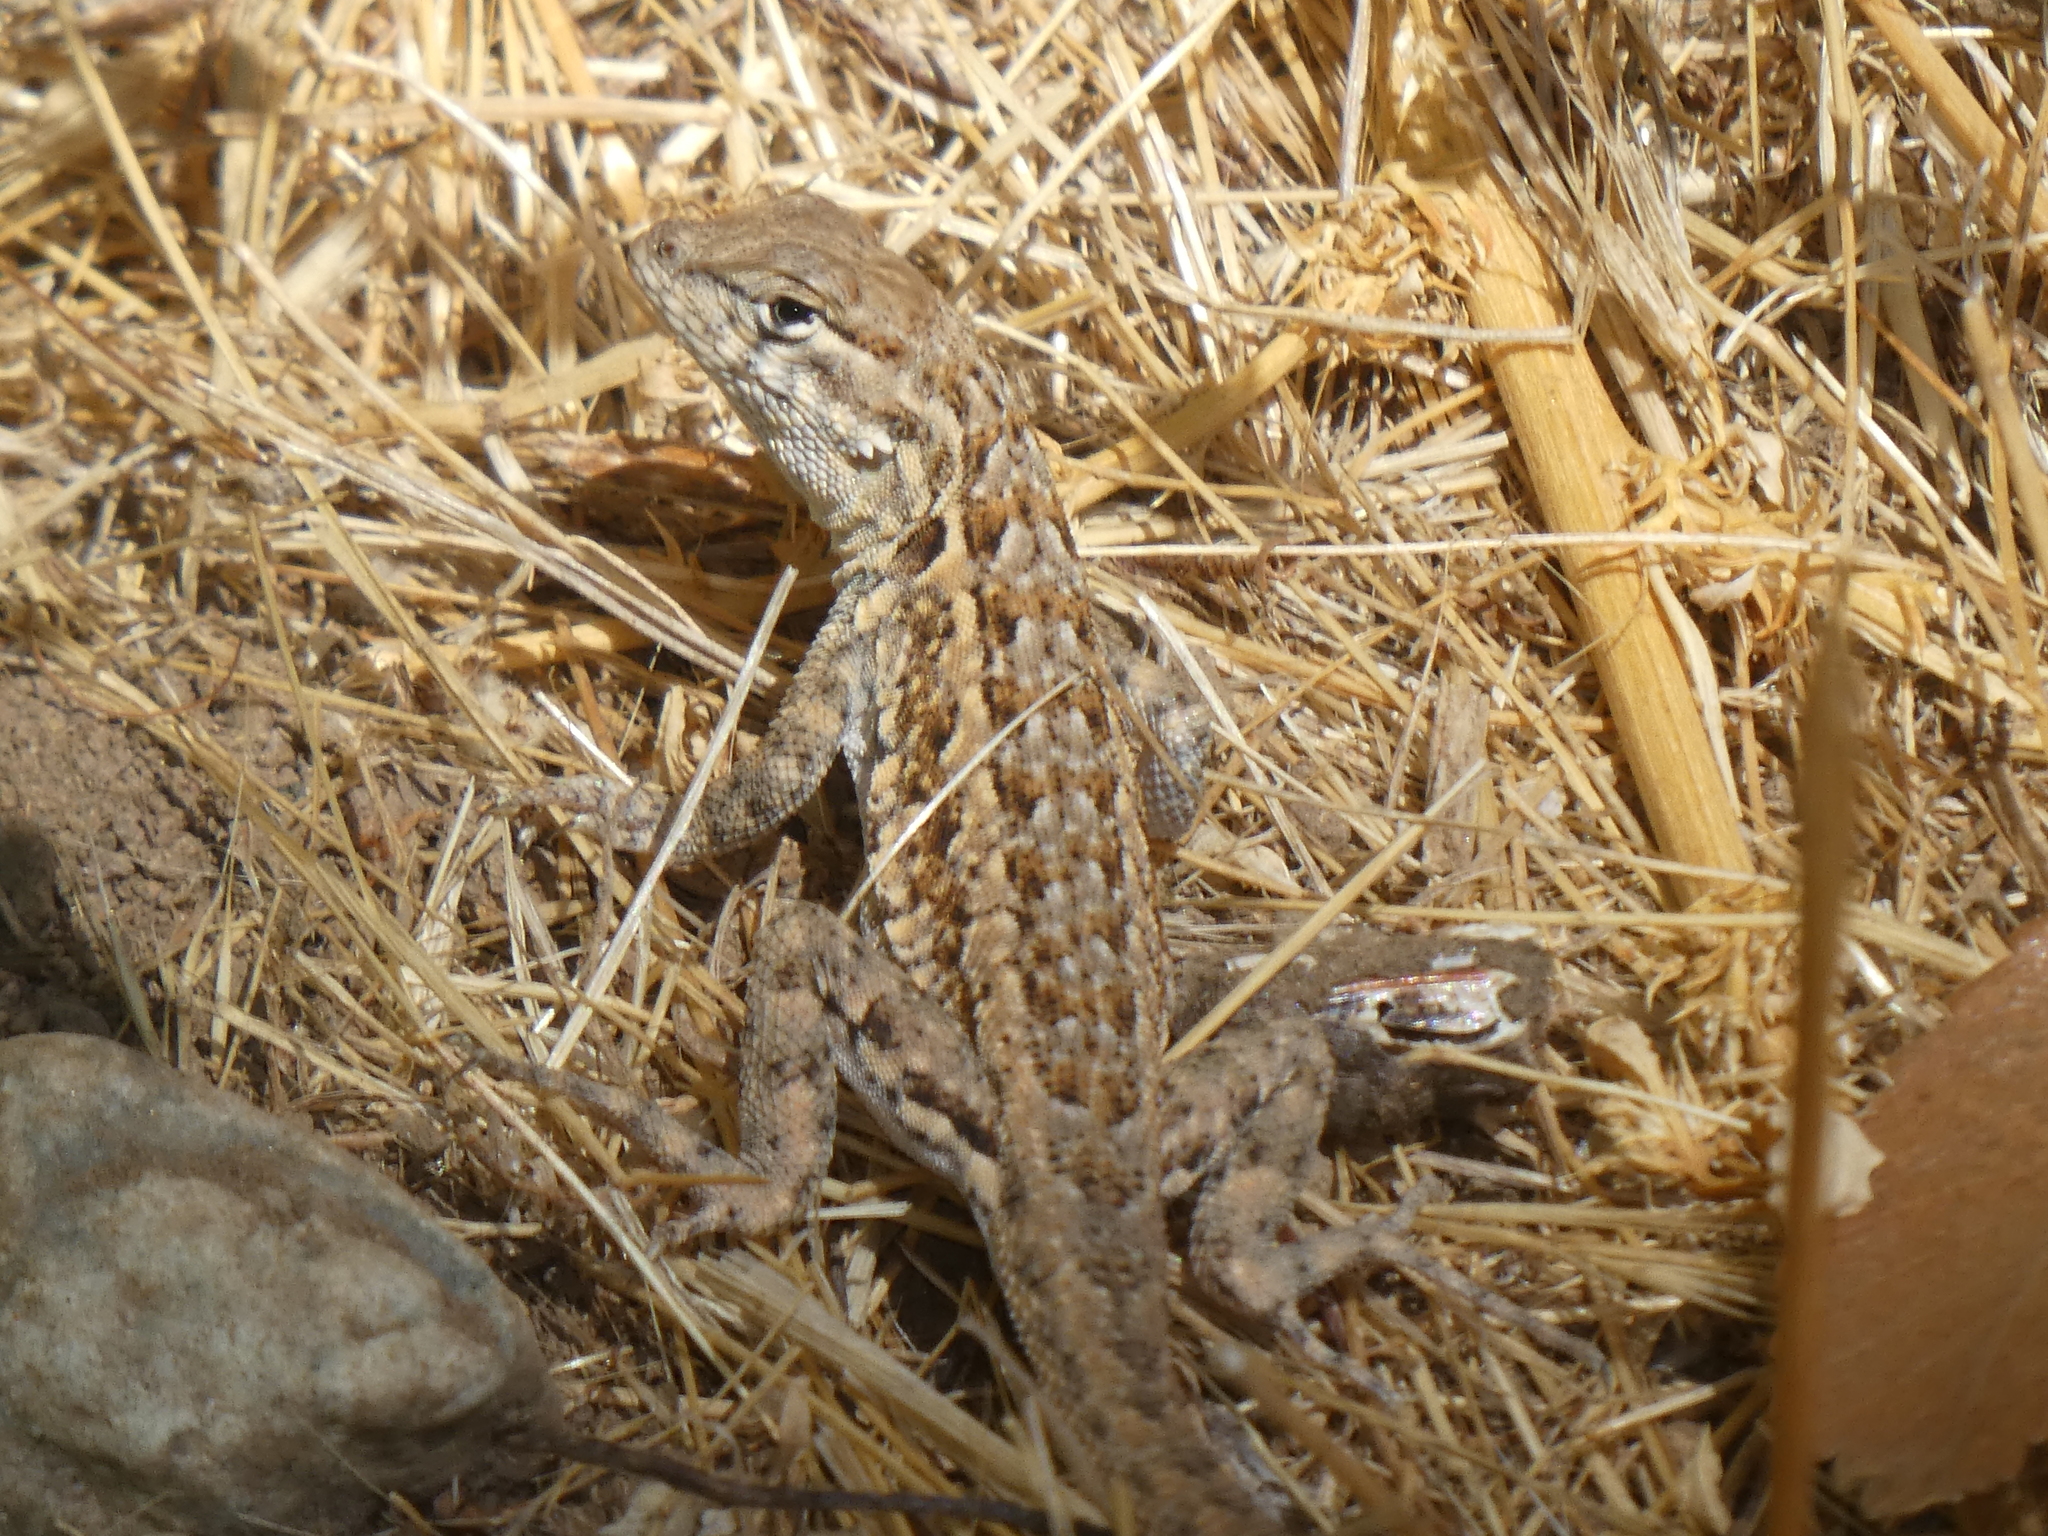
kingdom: Animalia
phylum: Chordata
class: Squamata
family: Phrynosomatidae
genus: Uta
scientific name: Uta stansburiana
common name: Side-blotched lizard
